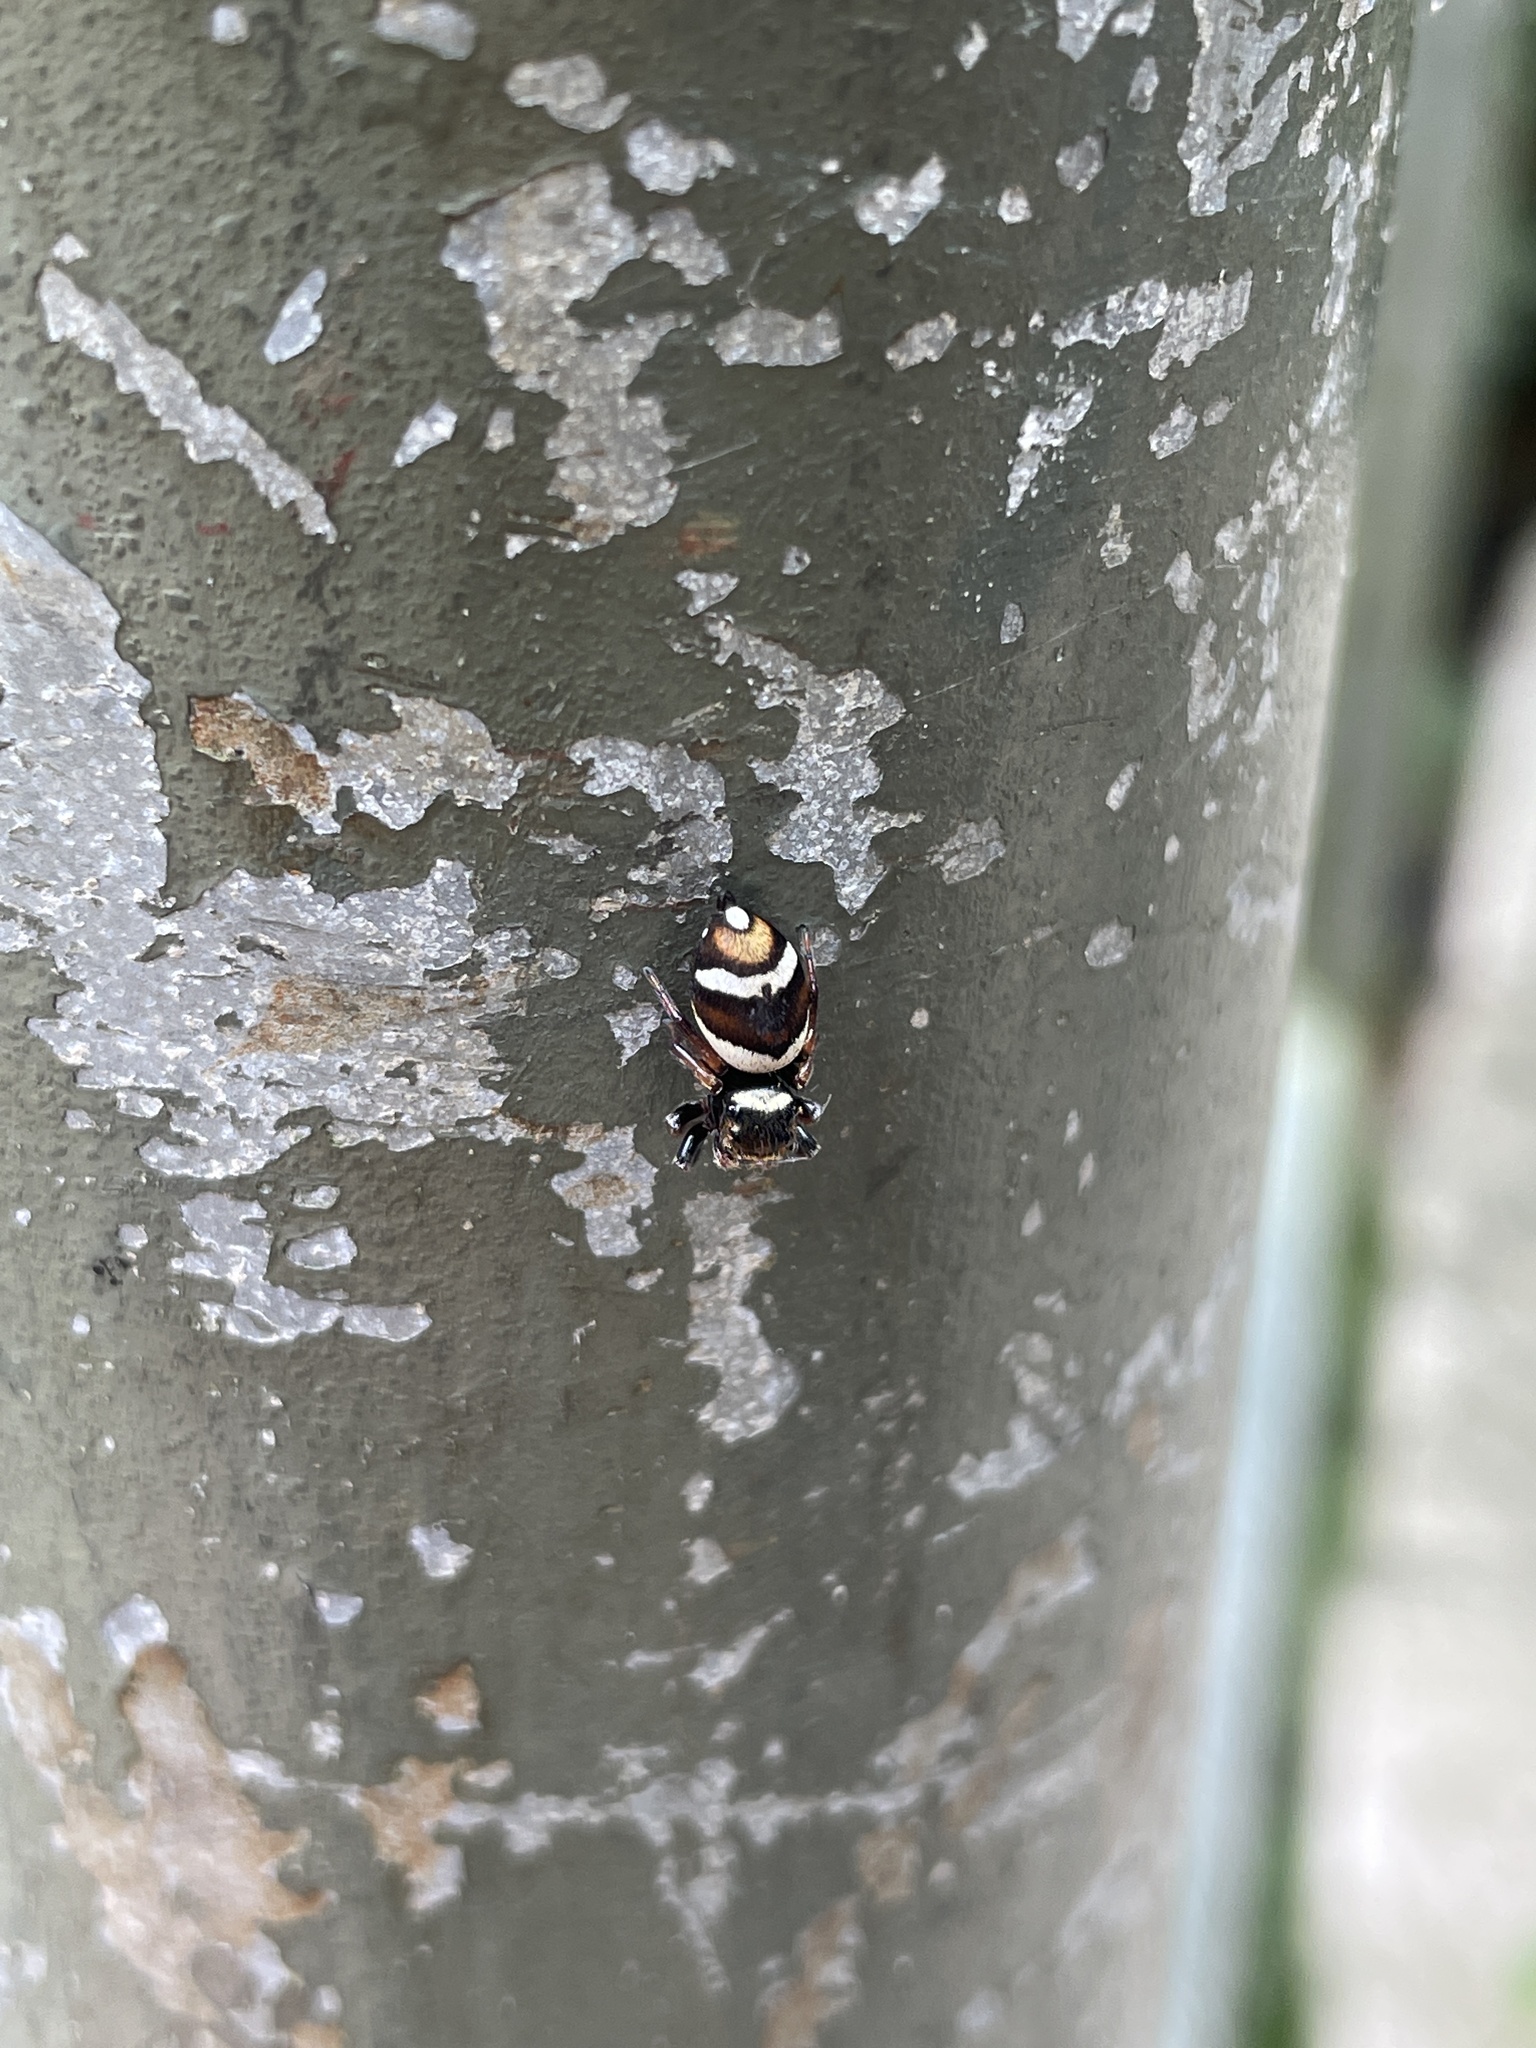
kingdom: Animalia
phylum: Arthropoda
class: Arachnida
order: Araneae
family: Salticidae
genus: Ptocasius
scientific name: Ptocasius strupifer
